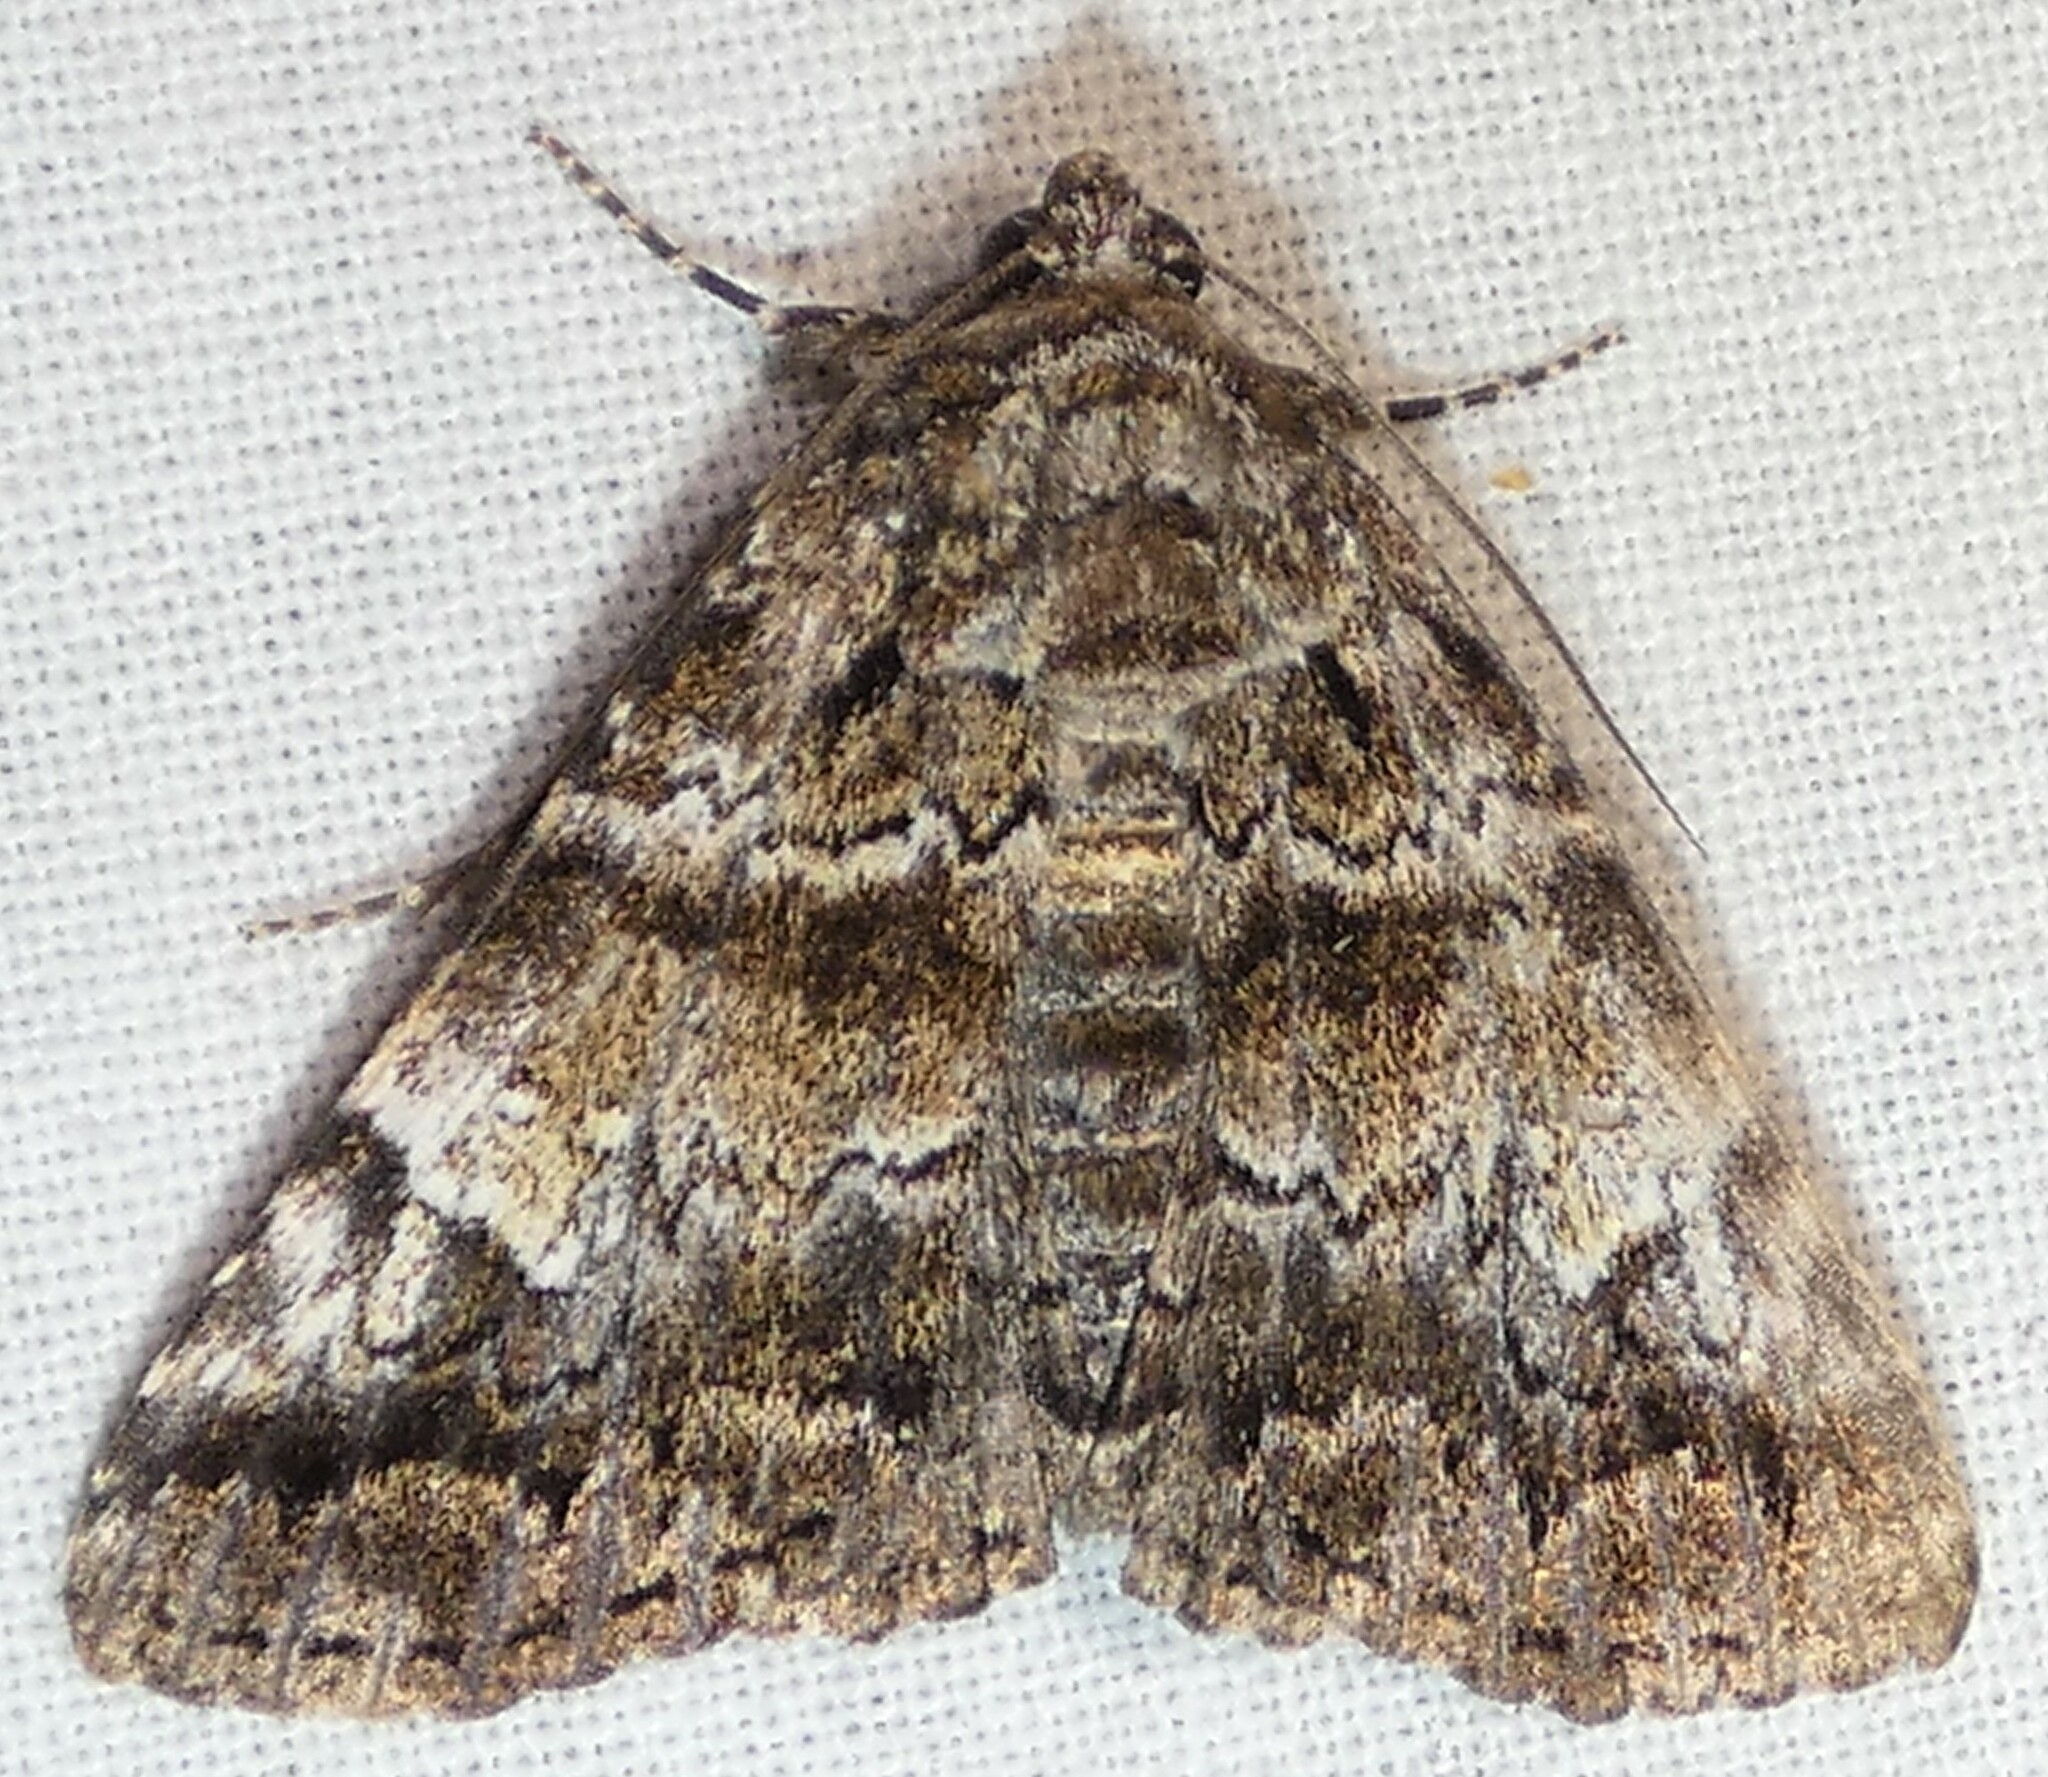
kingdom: Animalia
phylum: Arthropoda
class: Insecta
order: Lepidoptera
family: Erebidae
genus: Metria
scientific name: Metria amella
